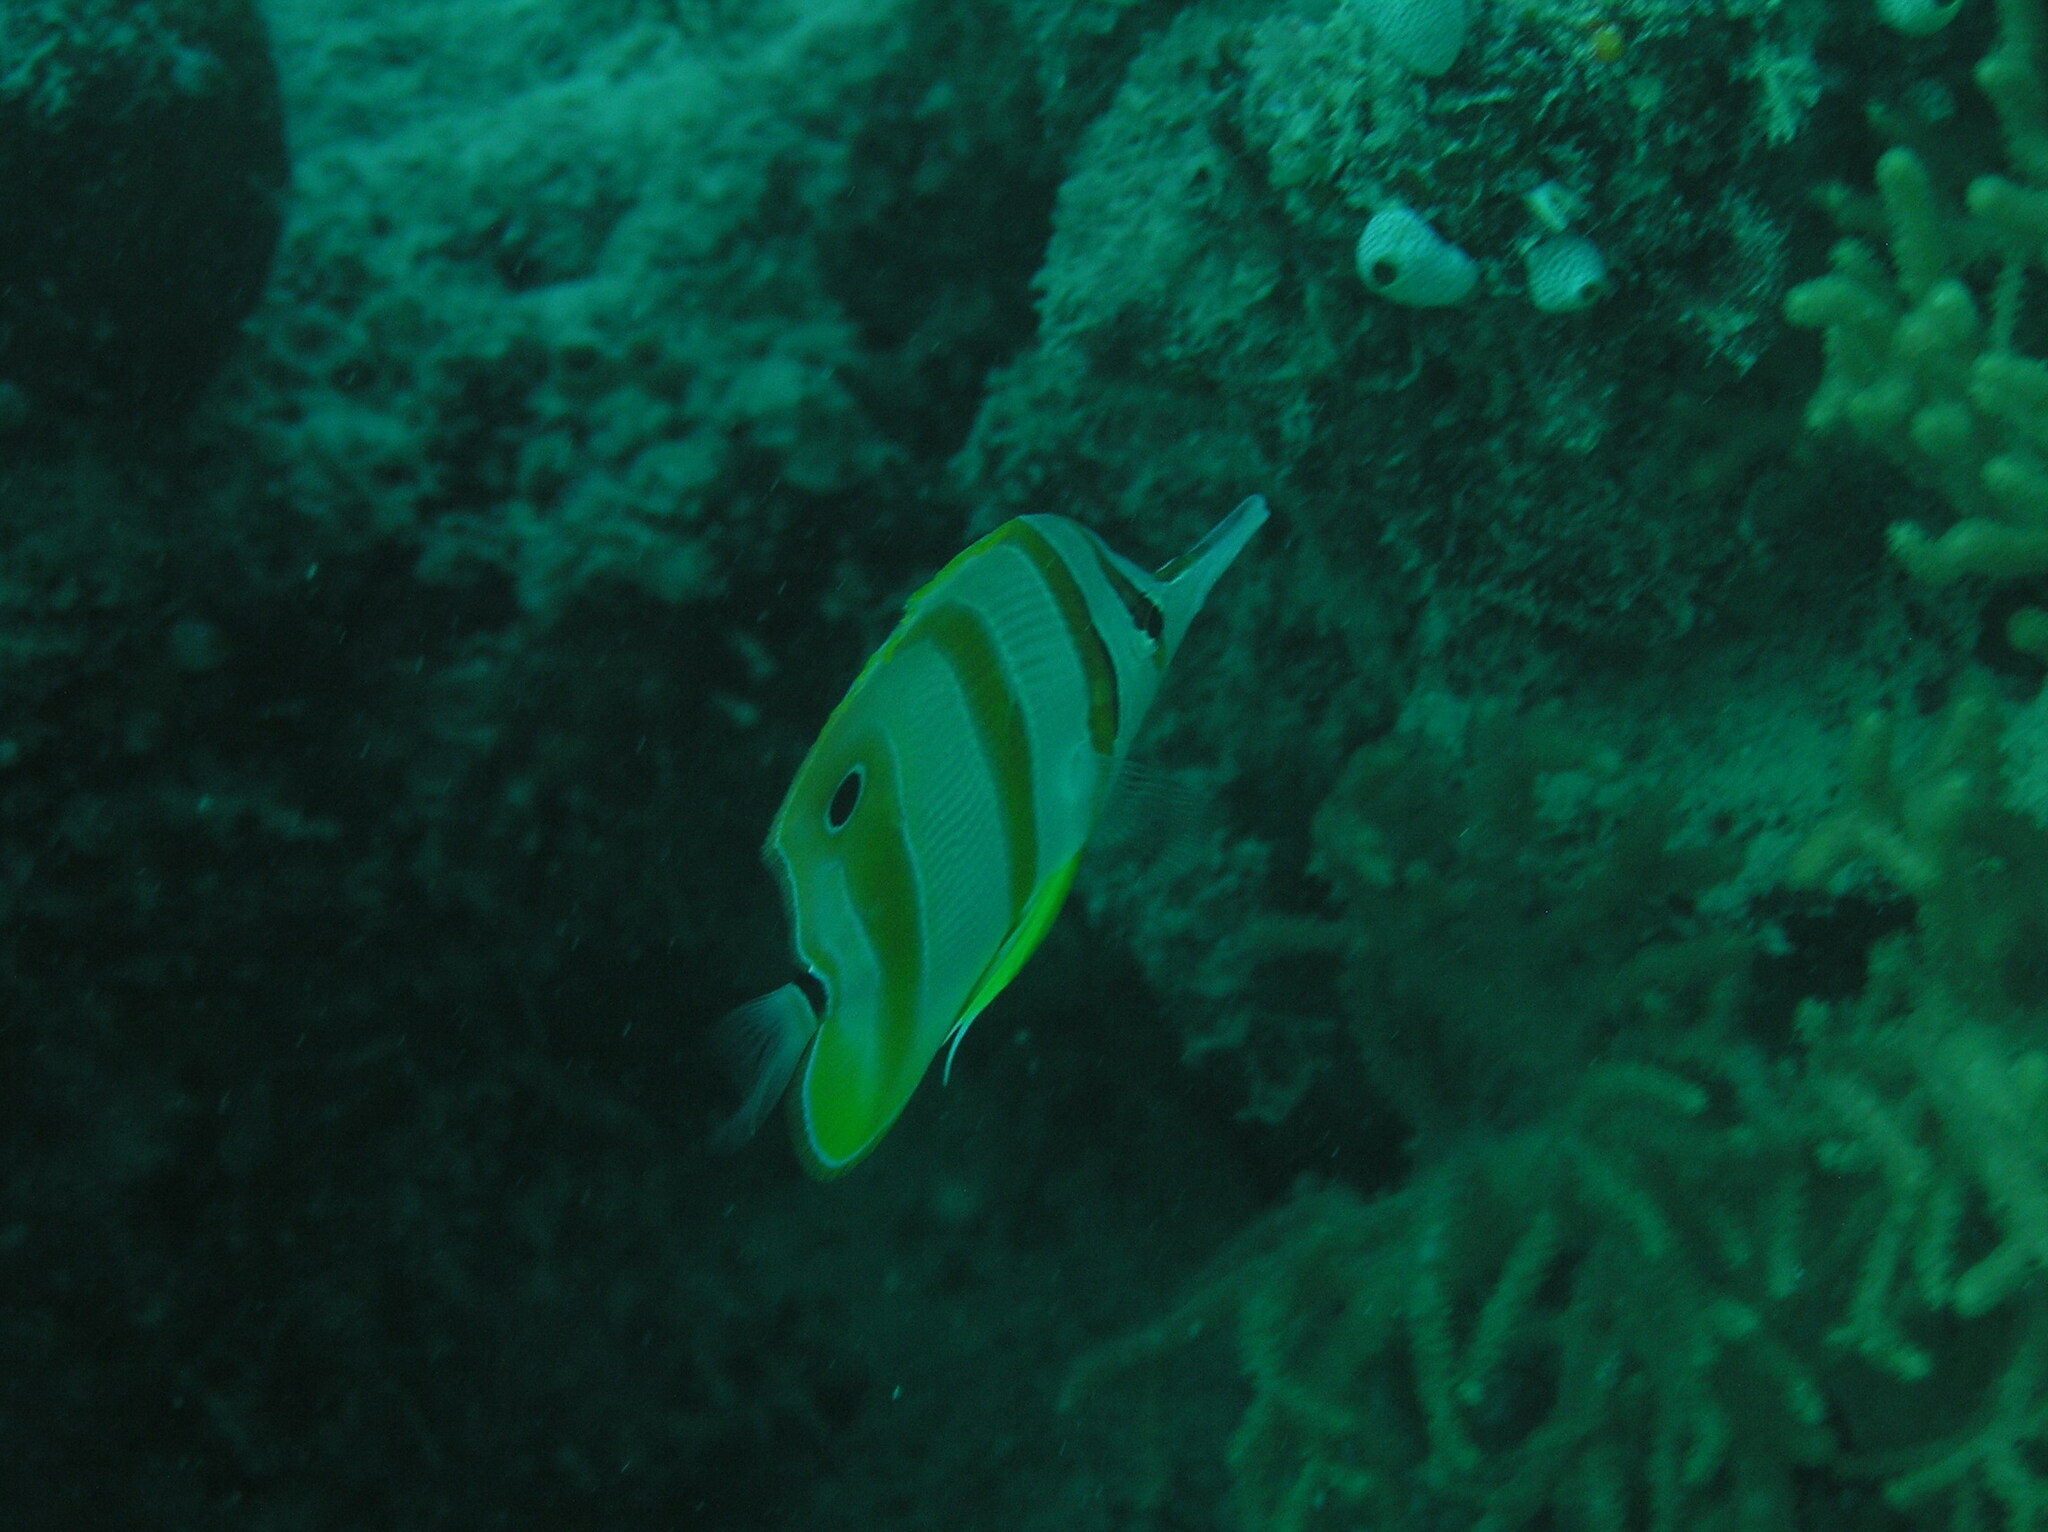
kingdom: Animalia
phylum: Chordata
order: Perciformes
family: Chaetodontidae
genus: Chelmon
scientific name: Chelmon rostratus
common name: Beaked butterflyfish
